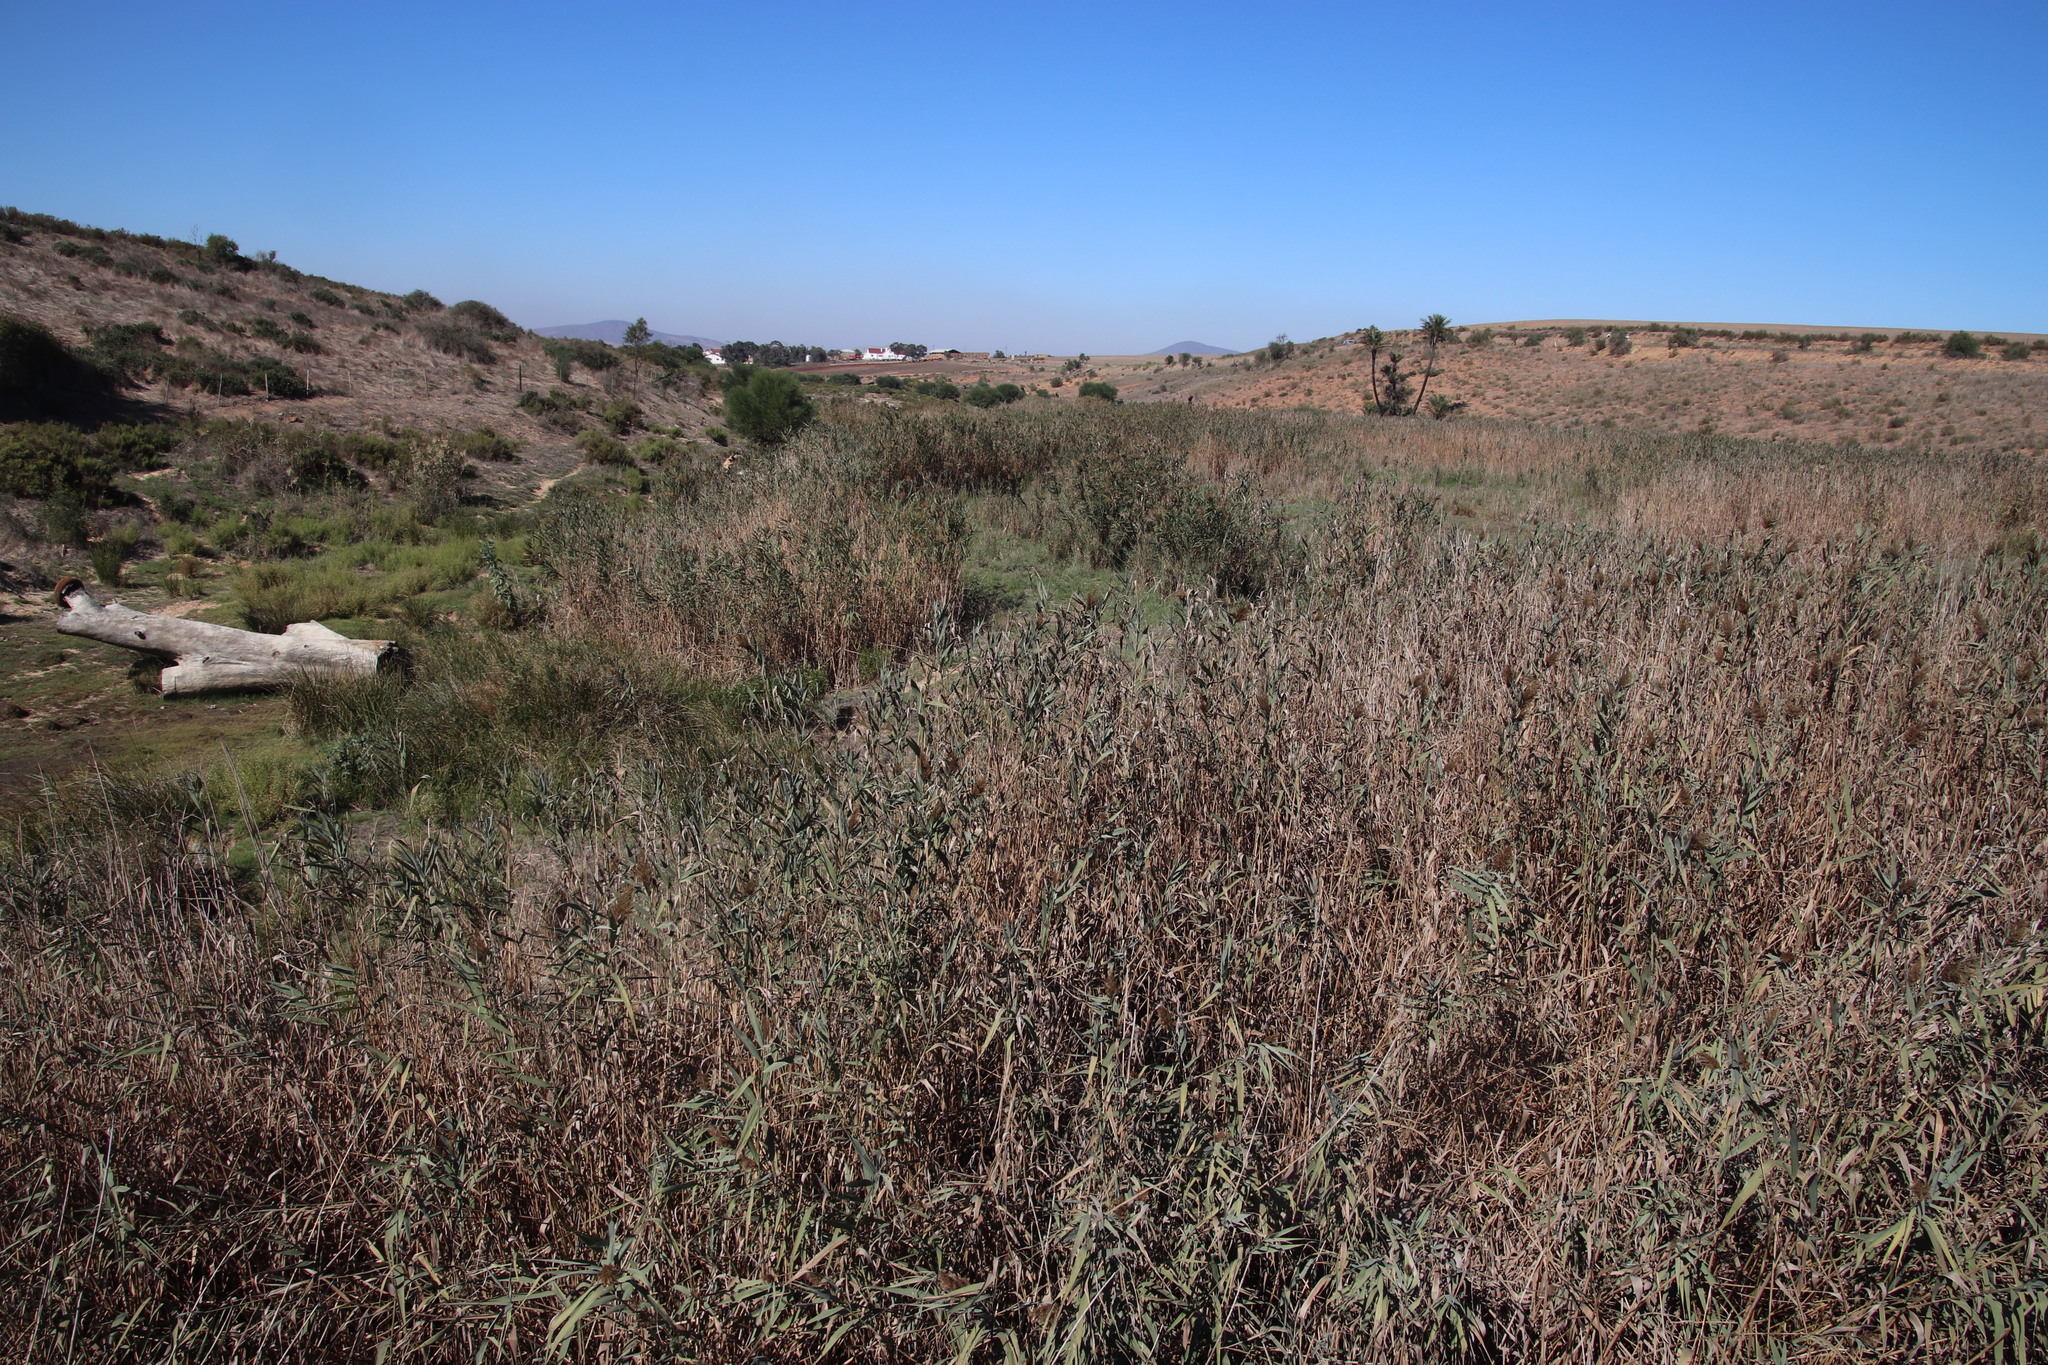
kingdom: Plantae
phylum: Tracheophyta
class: Liliopsida
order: Poales
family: Poaceae
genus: Phragmites
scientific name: Phragmites australis
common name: Common reed
